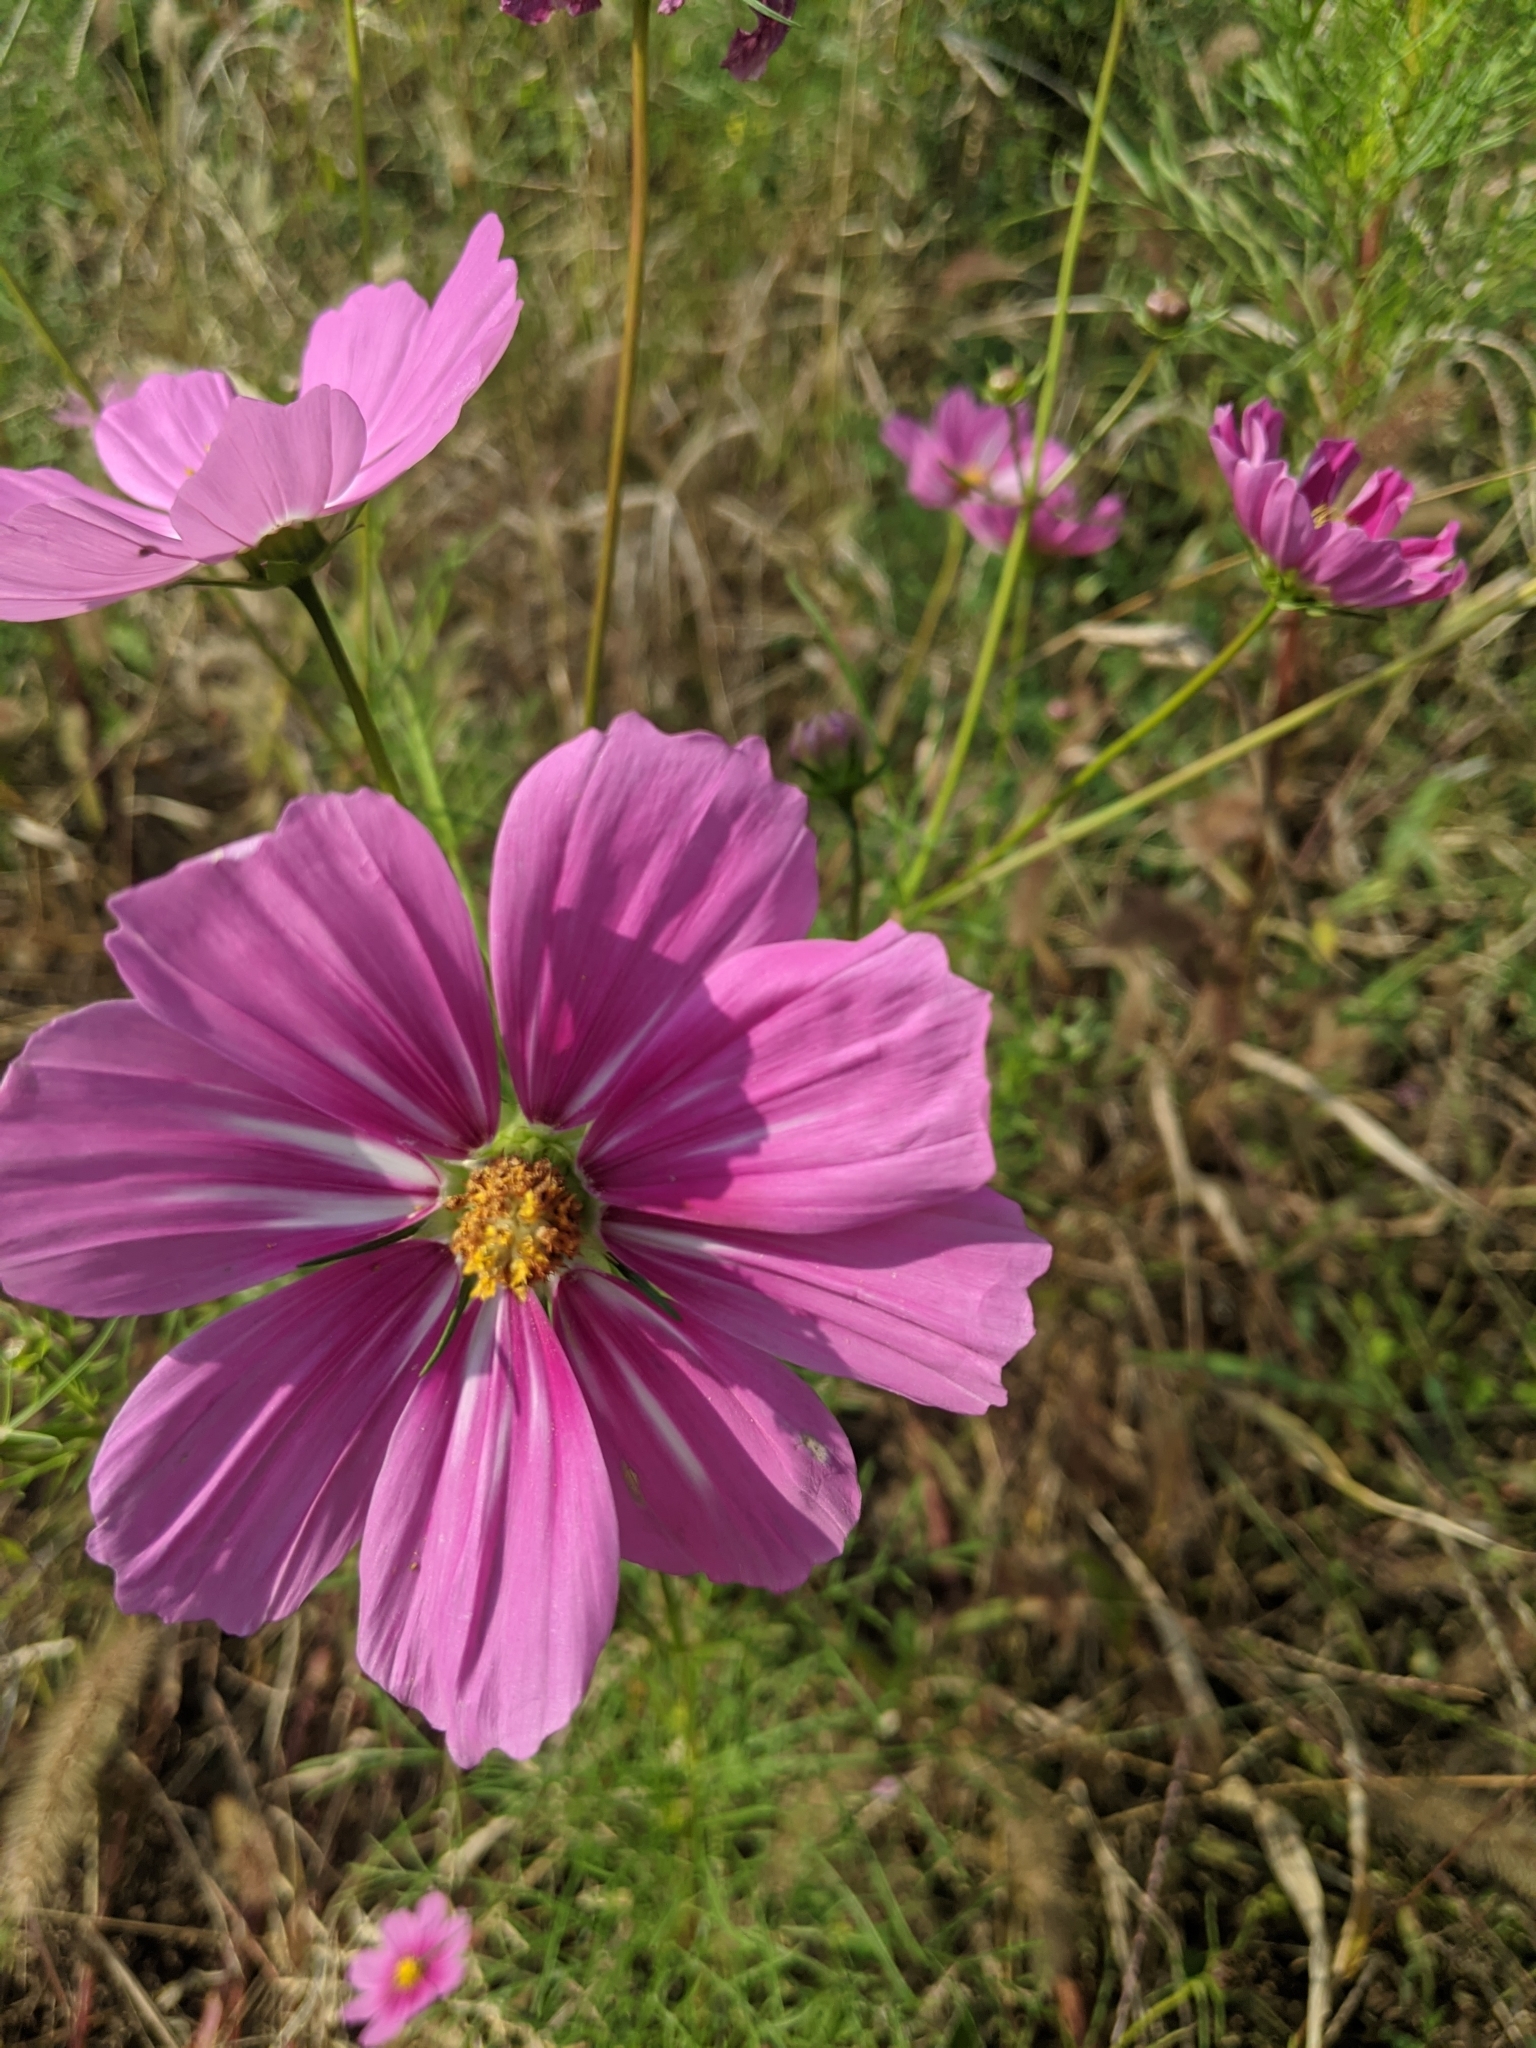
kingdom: Plantae
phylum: Tracheophyta
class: Magnoliopsida
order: Asterales
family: Asteraceae
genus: Cosmos
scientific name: Cosmos bipinnatus
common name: Garden cosmos
